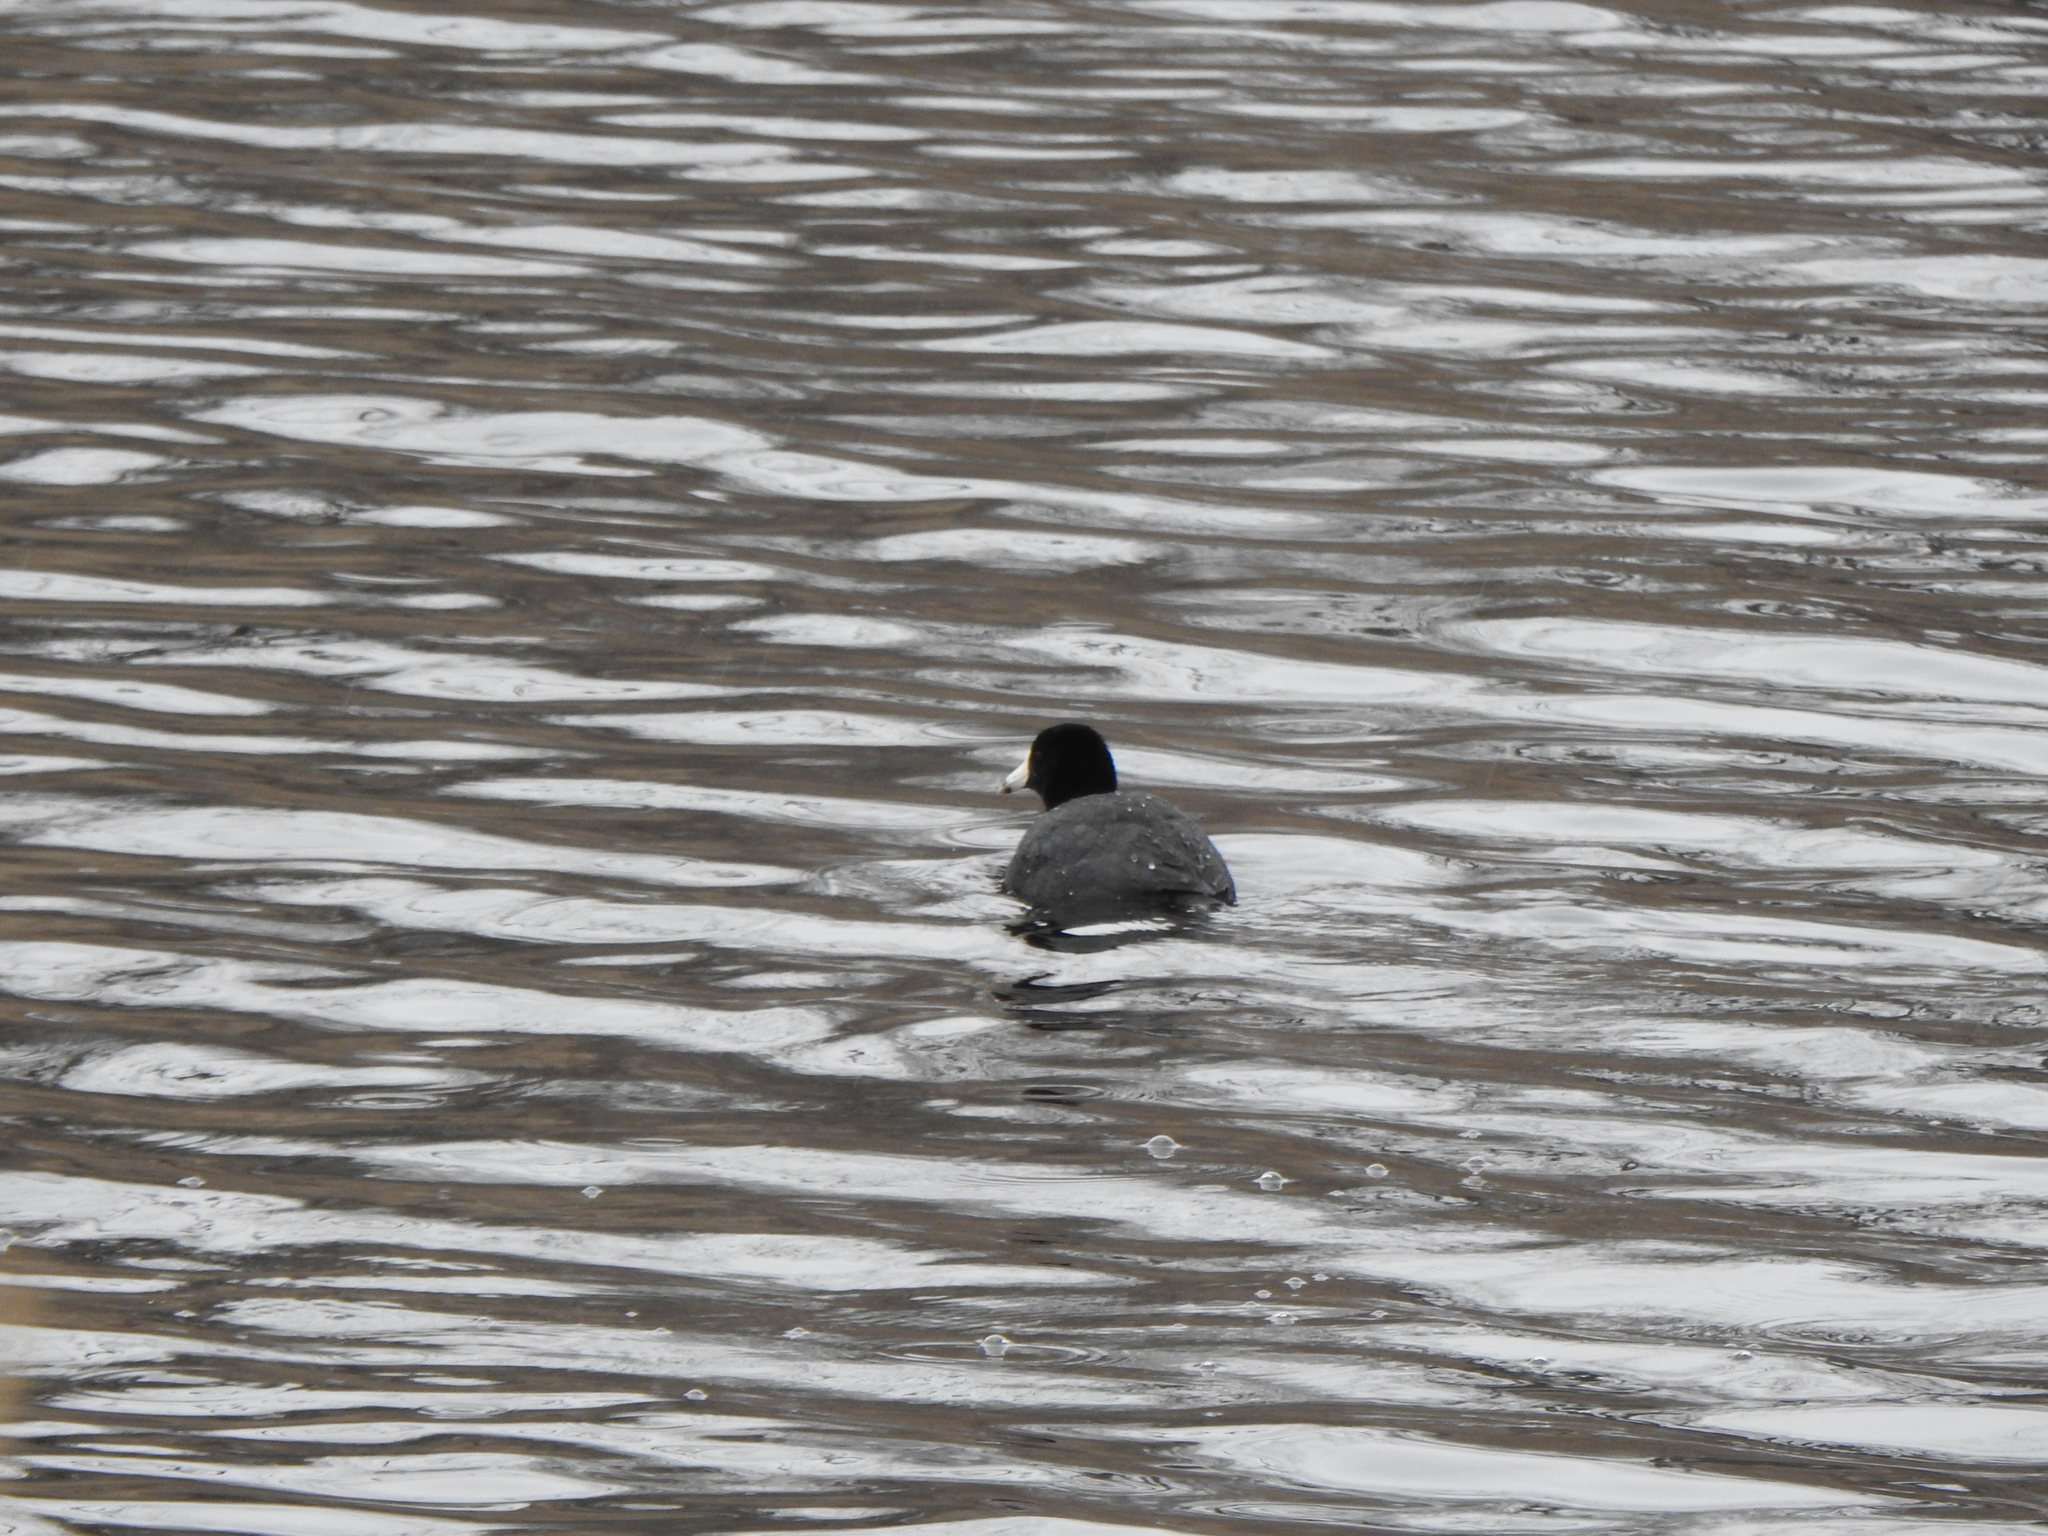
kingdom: Animalia
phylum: Chordata
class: Aves
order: Gruiformes
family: Rallidae
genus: Fulica
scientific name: Fulica americana
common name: American coot
